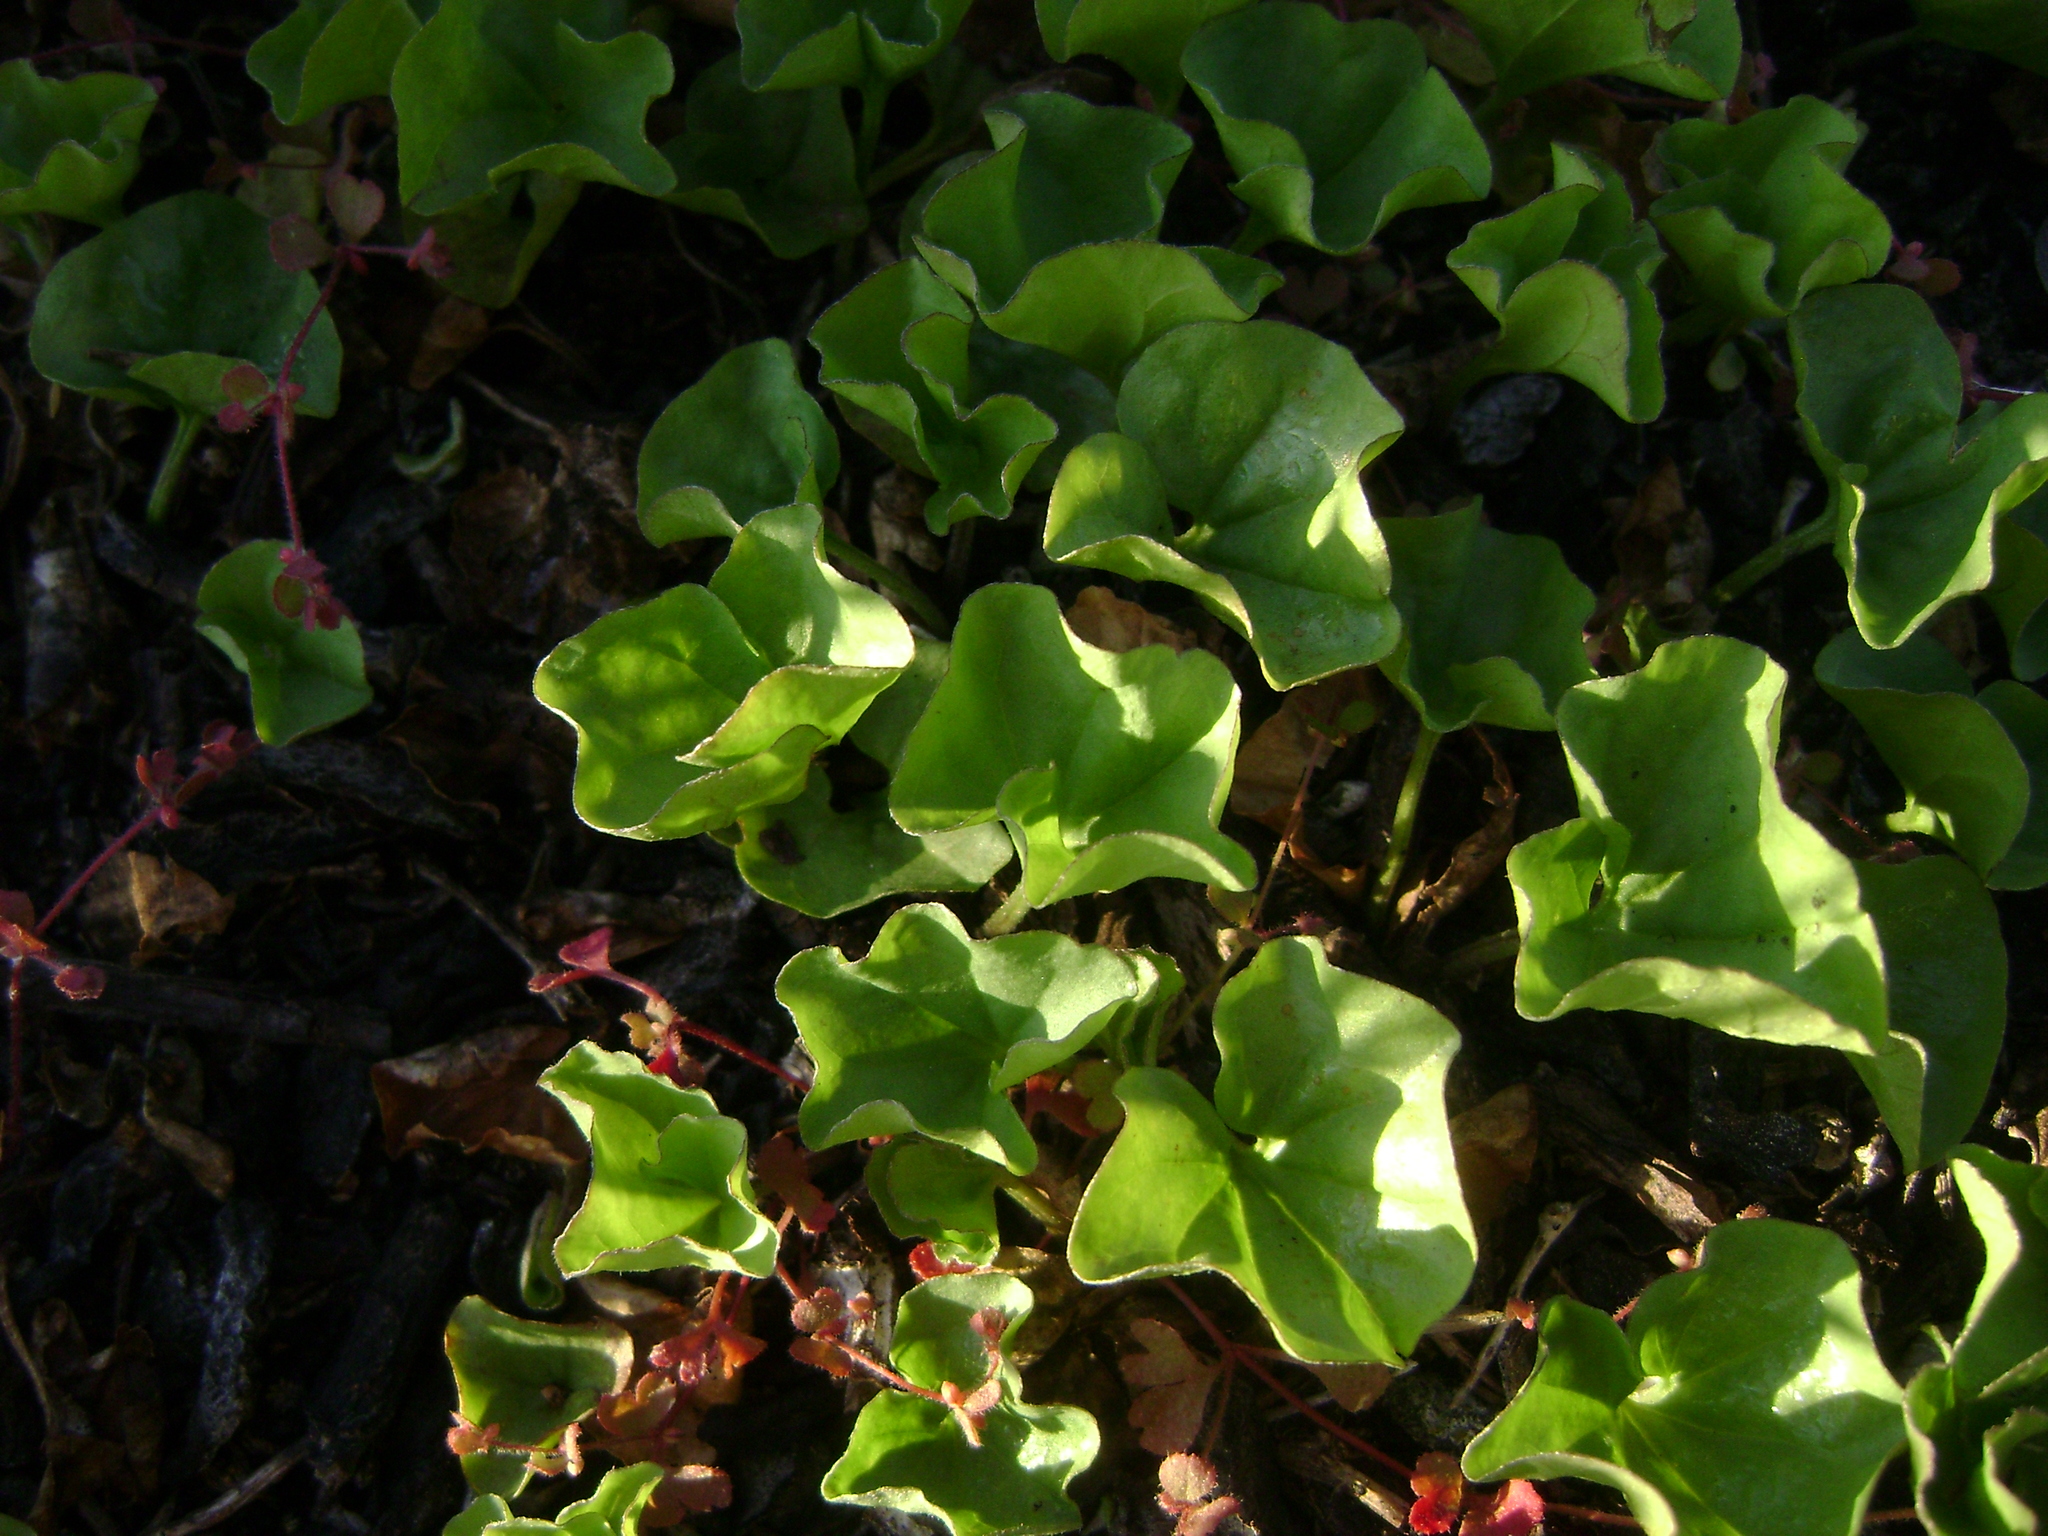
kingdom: Plantae
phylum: Tracheophyta
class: Magnoliopsida
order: Solanales
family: Convolvulaceae
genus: Dichondra
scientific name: Dichondra occidentalis
